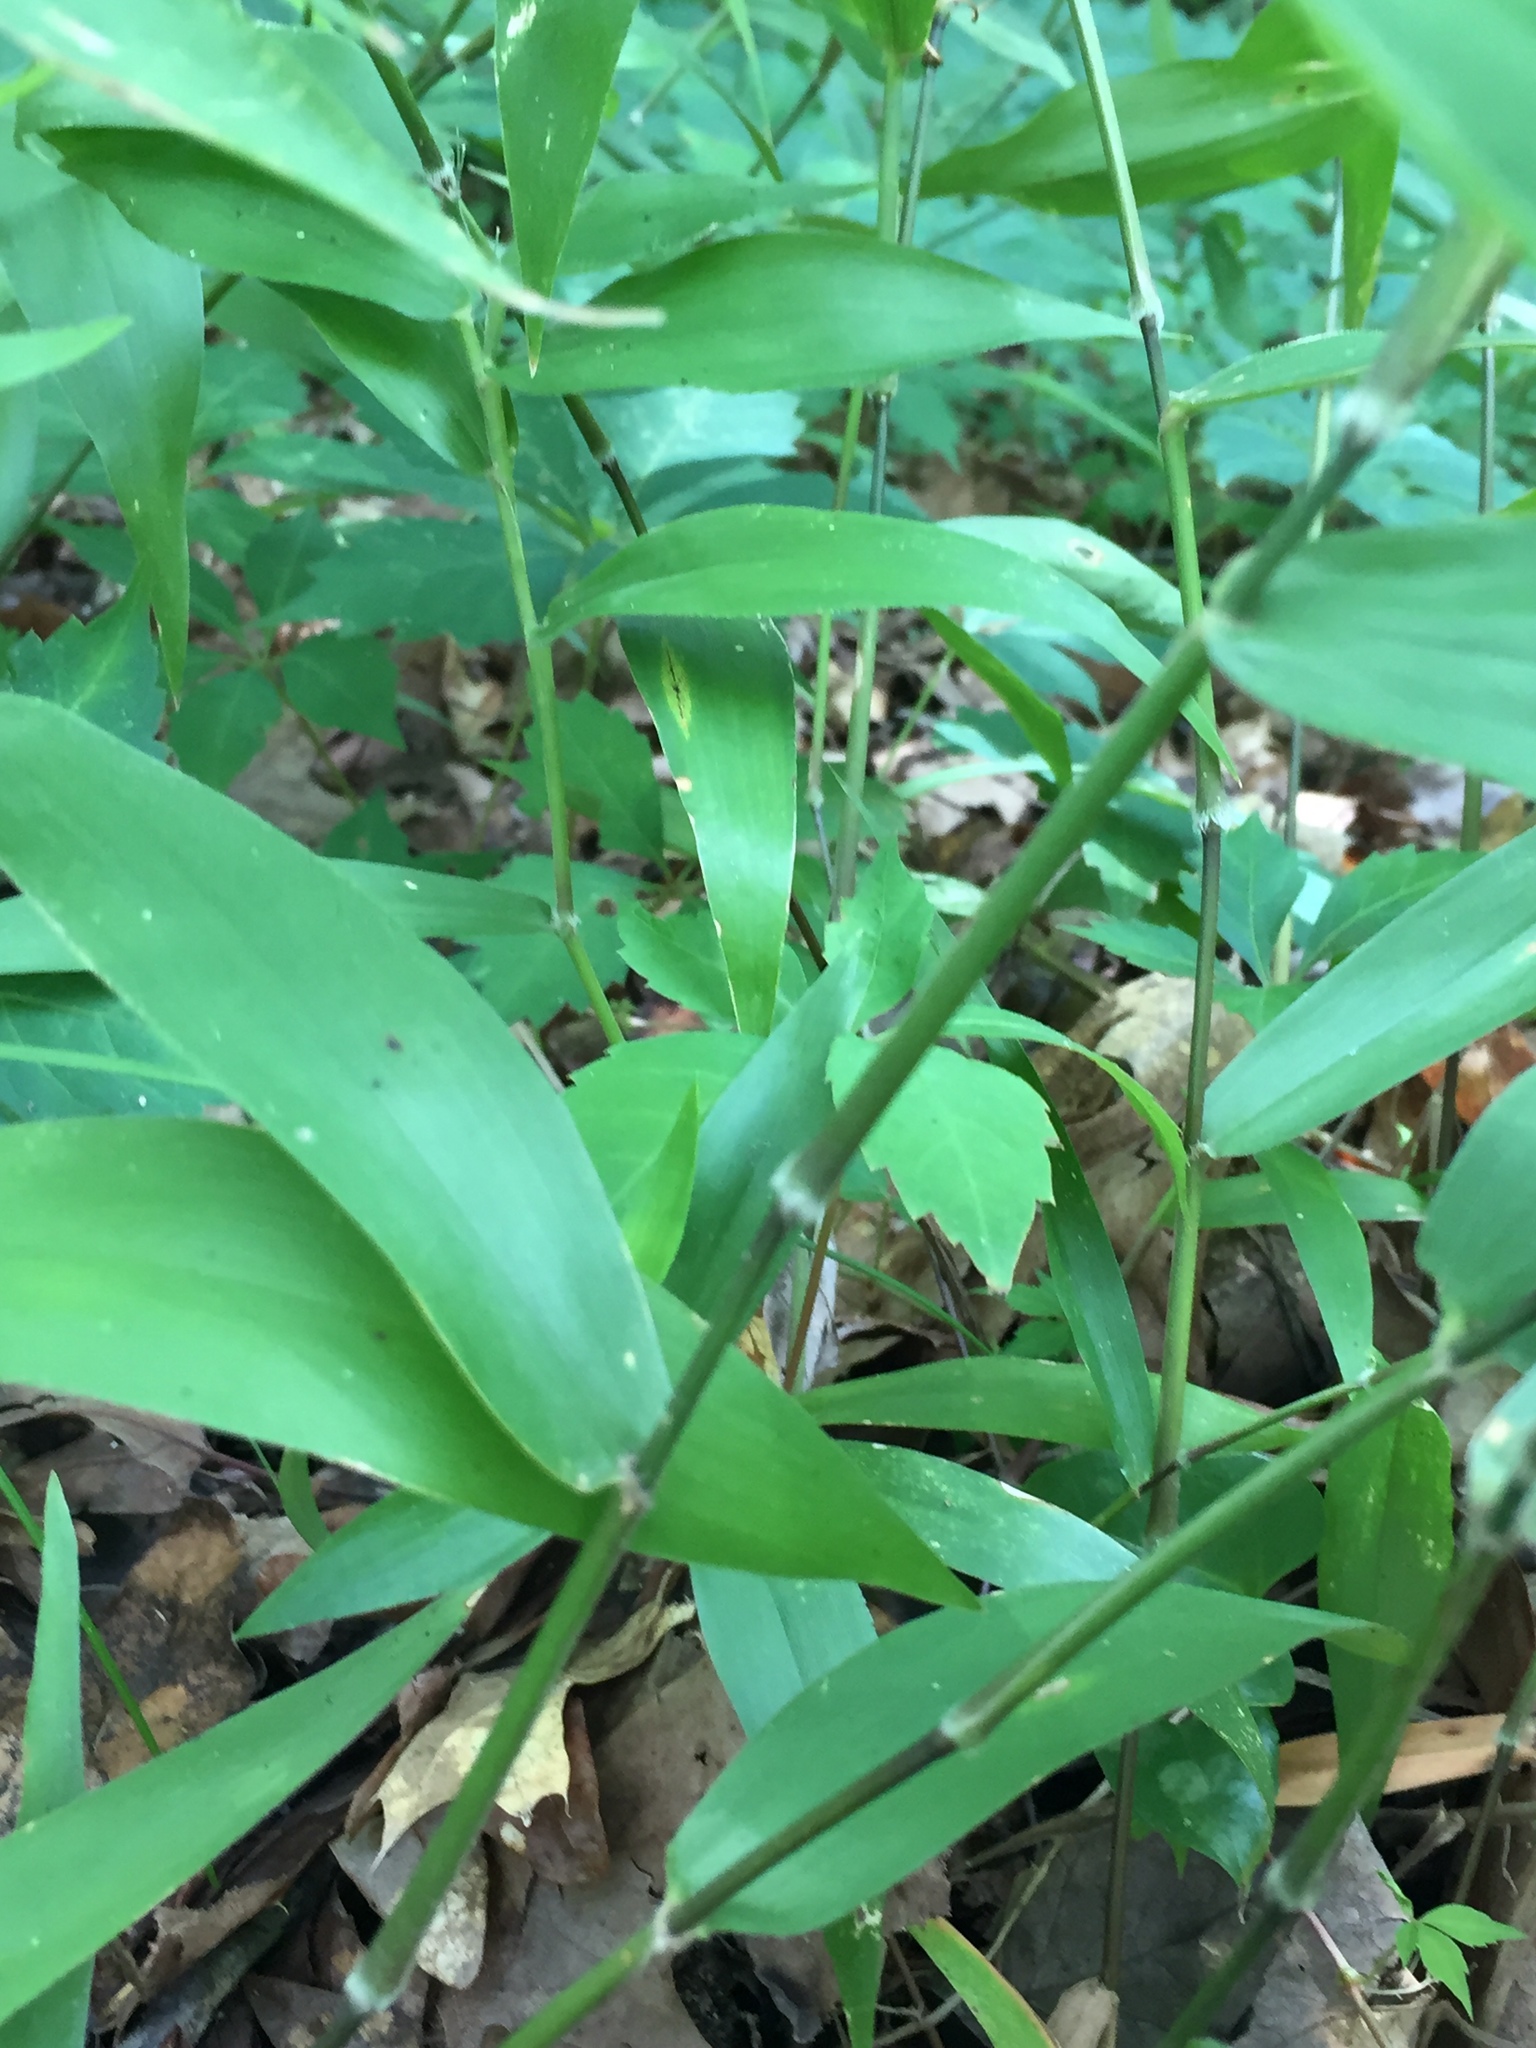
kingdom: Plantae
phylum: Tracheophyta
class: Liliopsida
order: Poales
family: Poaceae
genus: Dichanthelium
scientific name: Dichanthelium boscii
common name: Bosc's panic grass
